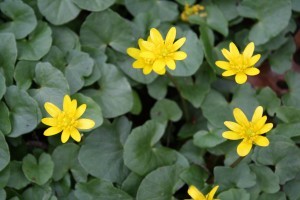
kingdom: Plantae
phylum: Tracheophyta
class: Magnoliopsida
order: Ranunculales
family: Ranunculaceae
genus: Ficaria
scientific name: Ficaria verna
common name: Lesser celandine
